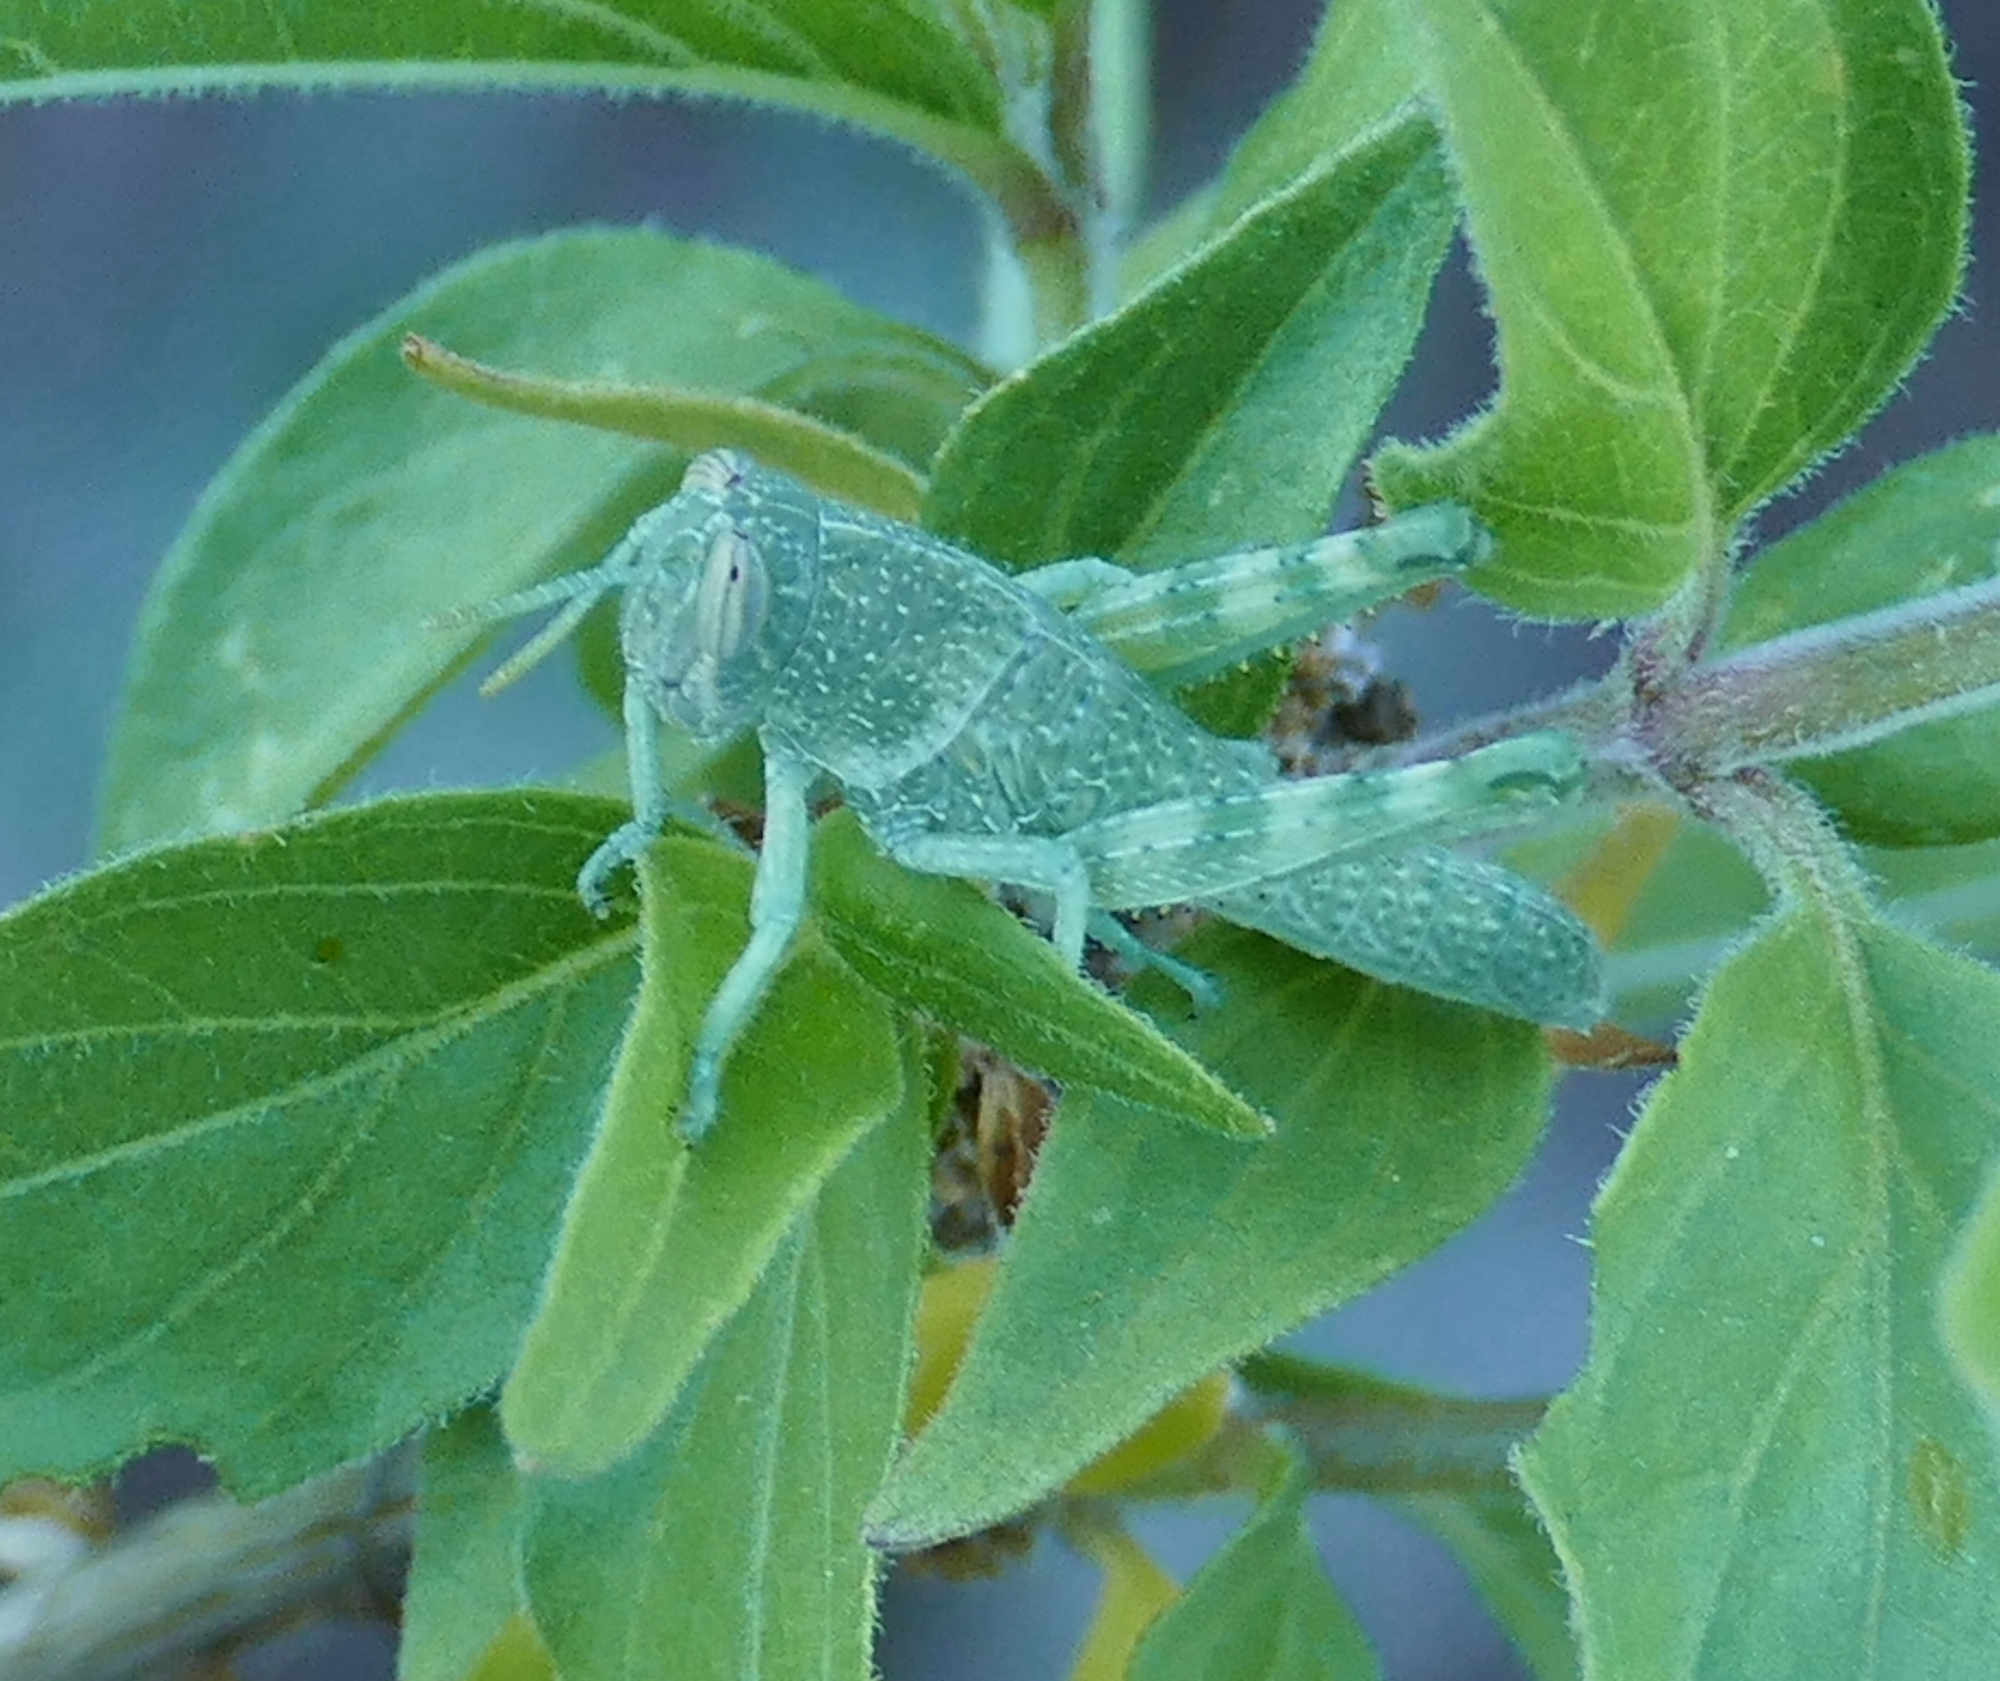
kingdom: Animalia
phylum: Arthropoda
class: Insecta
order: Orthoptera
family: Acrididae
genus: Schistocerca
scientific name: Schistocerca nitens
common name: Vagrant grasshopper
